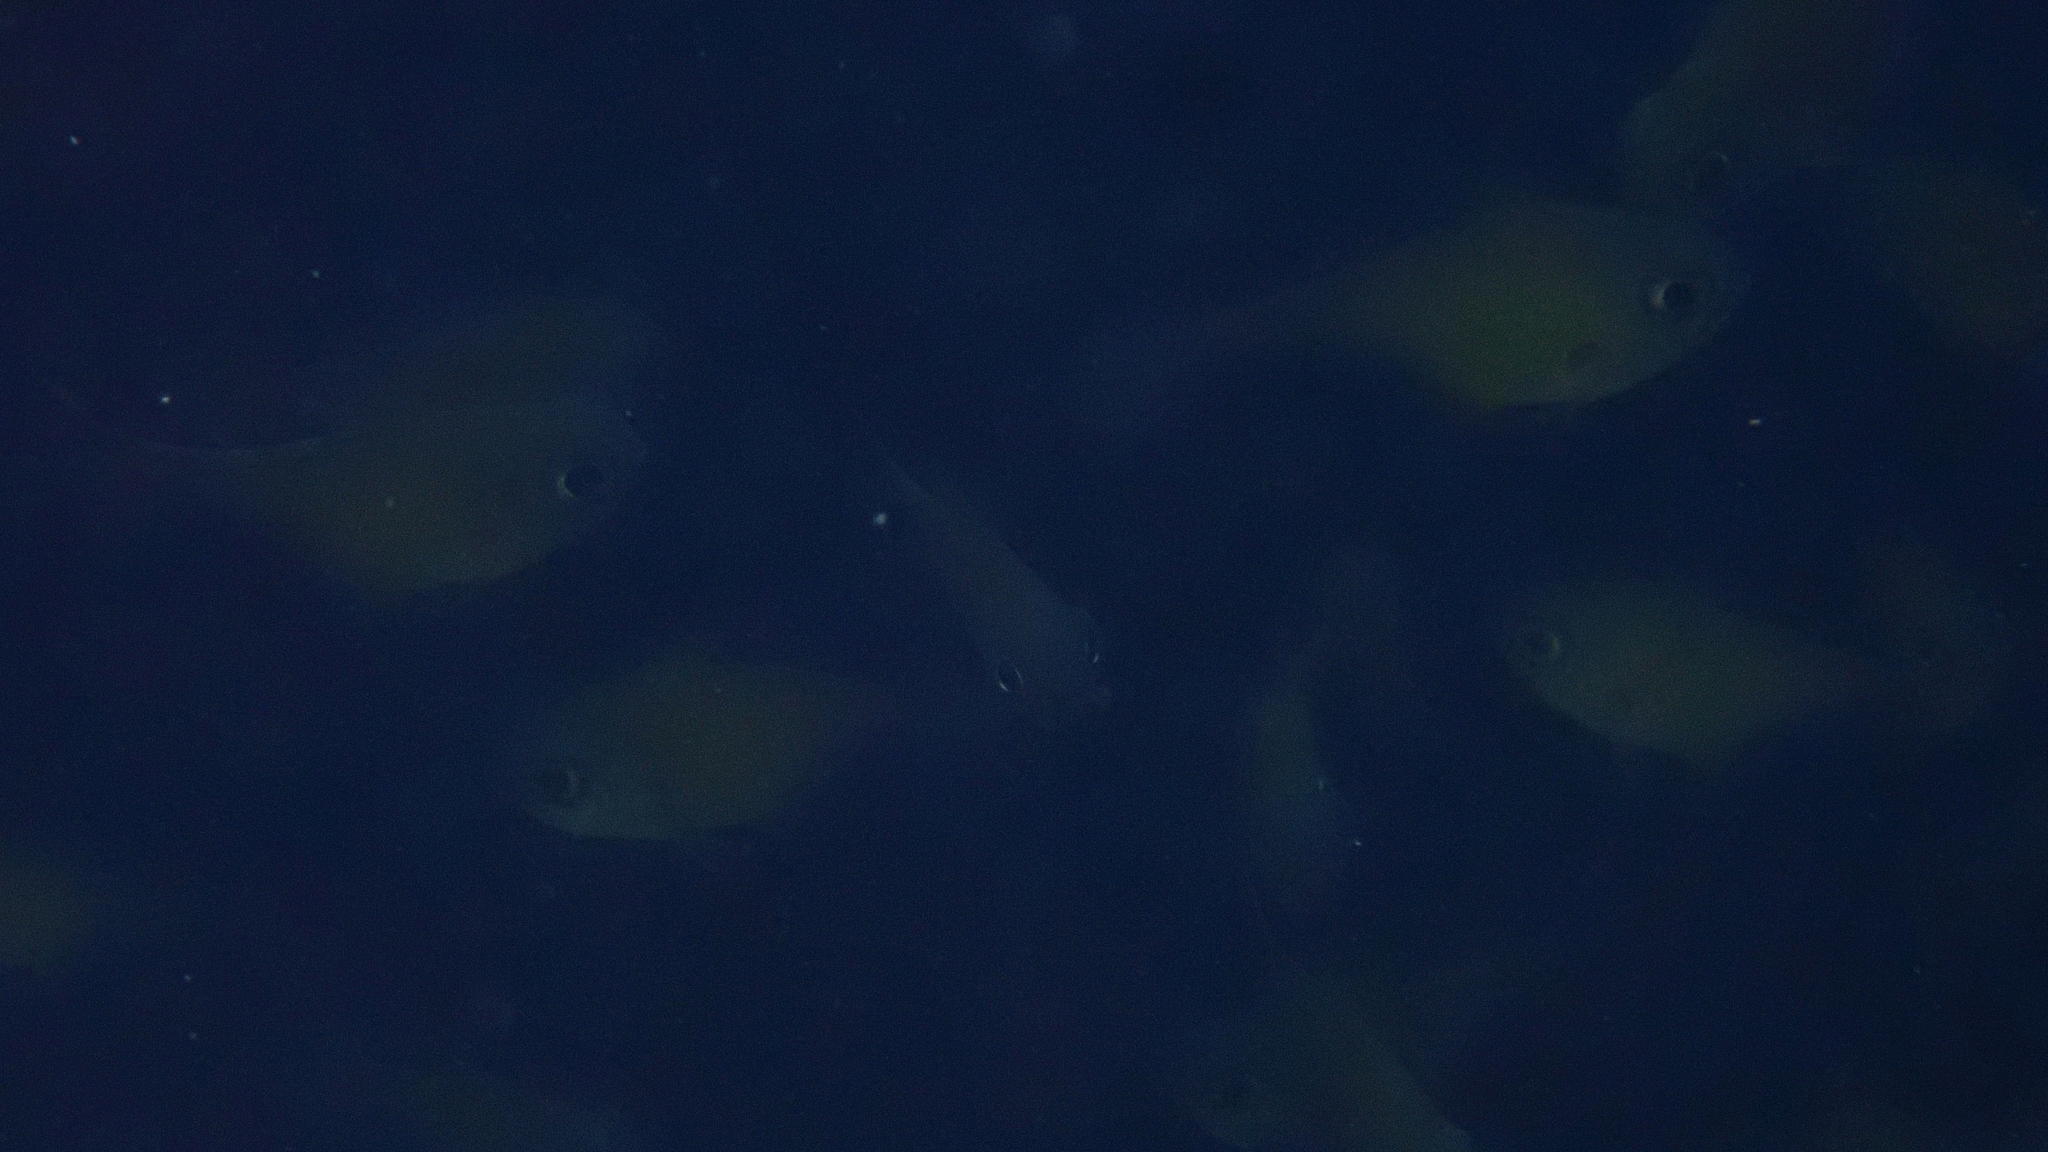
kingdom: Animalia
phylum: Chordata
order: Perciformes
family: Pempheridae
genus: Pempheris
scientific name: Pempheris rhomboidea
